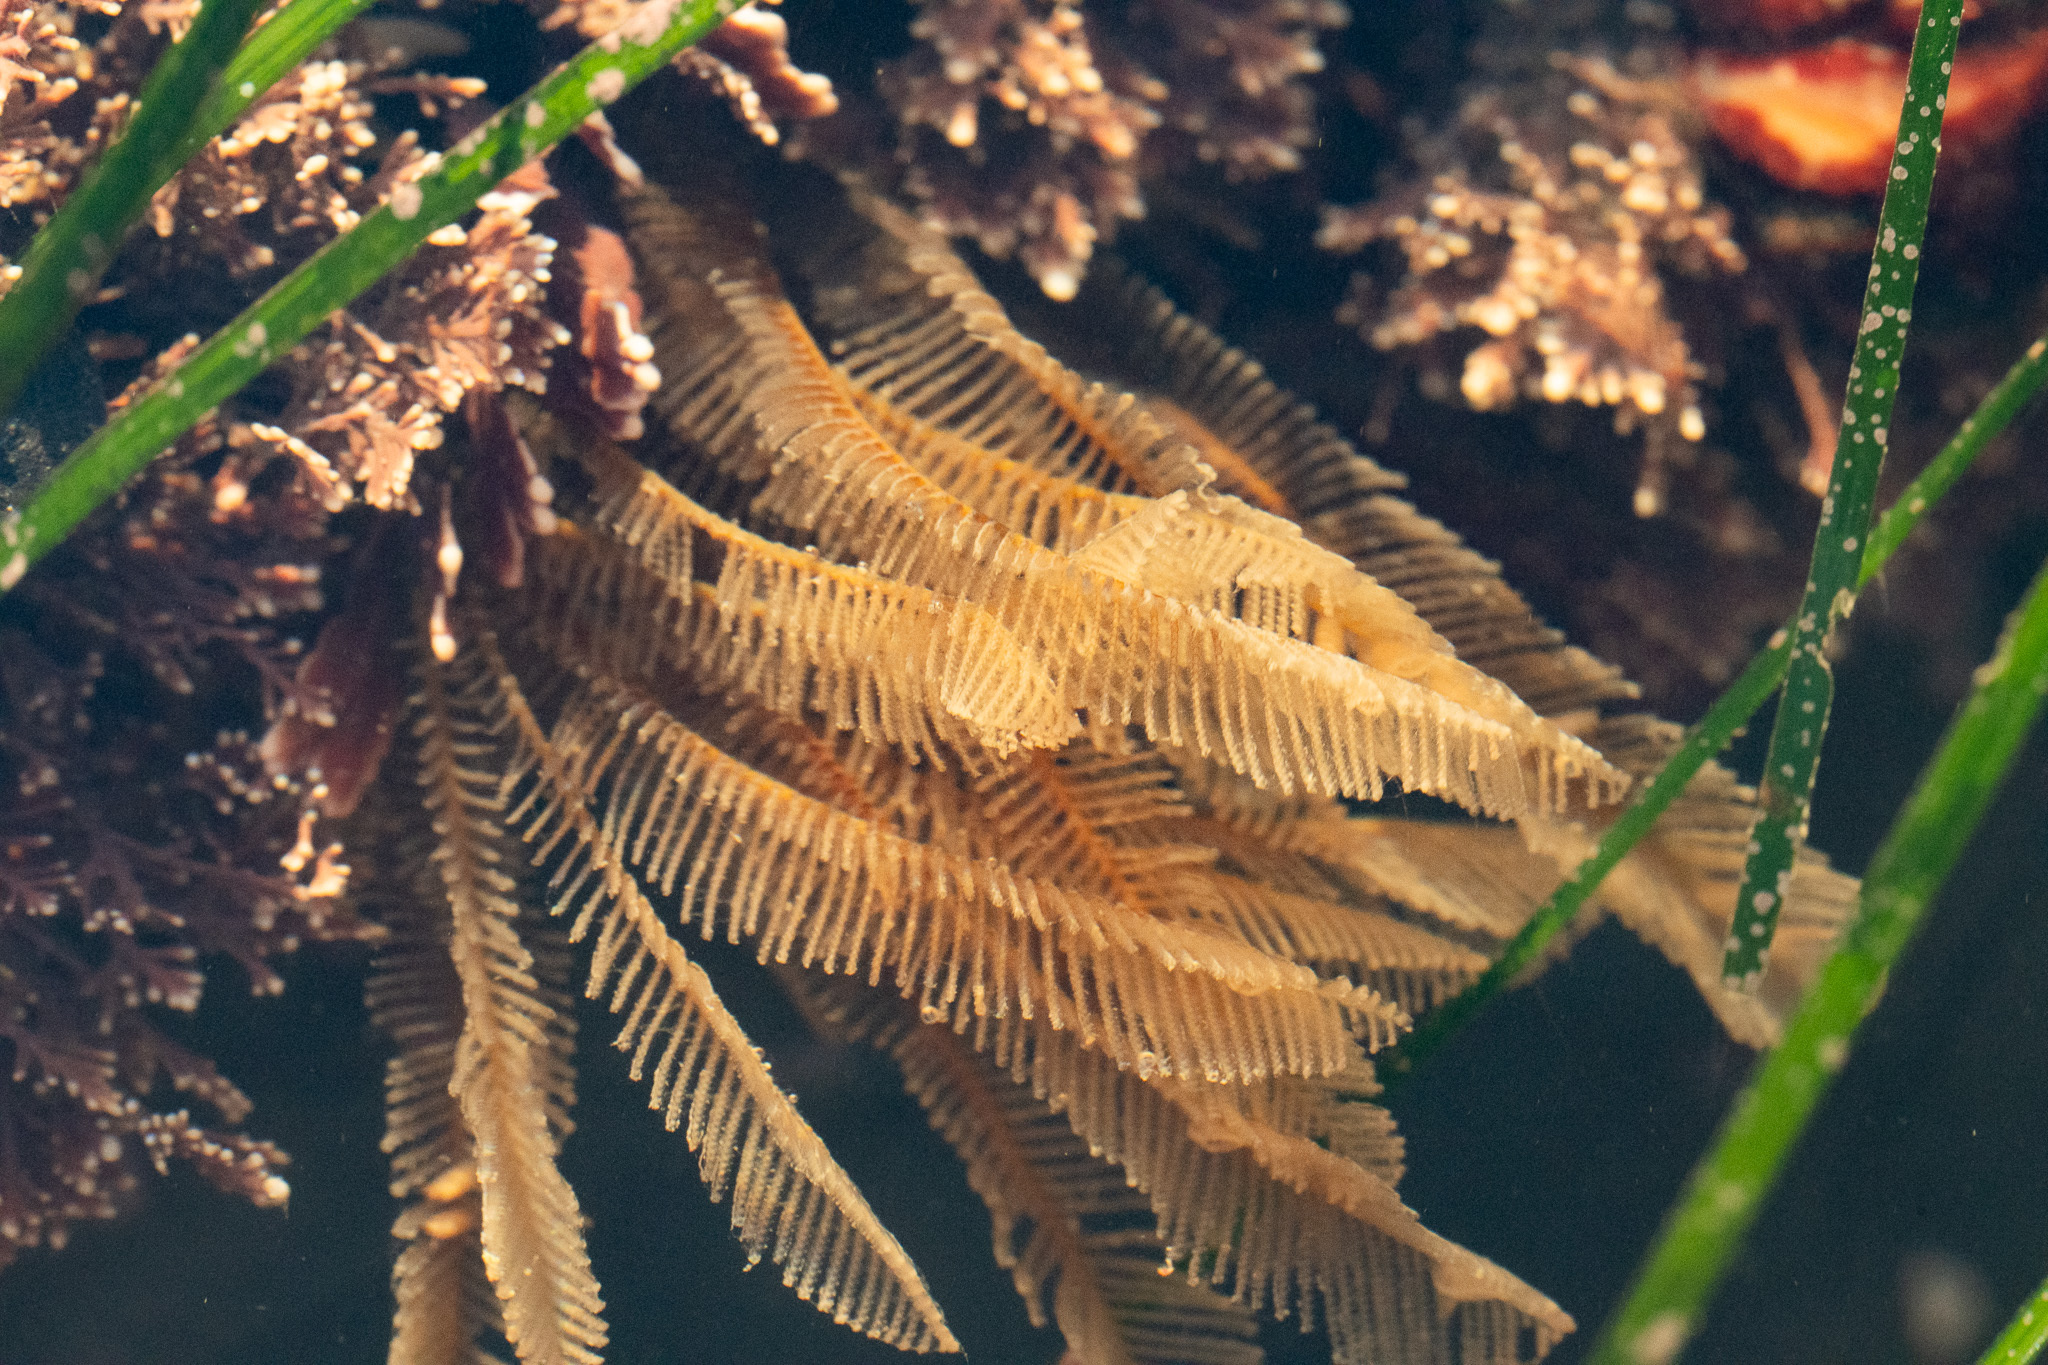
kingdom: Animalia
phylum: Cnidaria
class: Hydrozoa
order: Leptothecata
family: Aglaopheniidae
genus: Aglaophenia
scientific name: Aglaophenia
